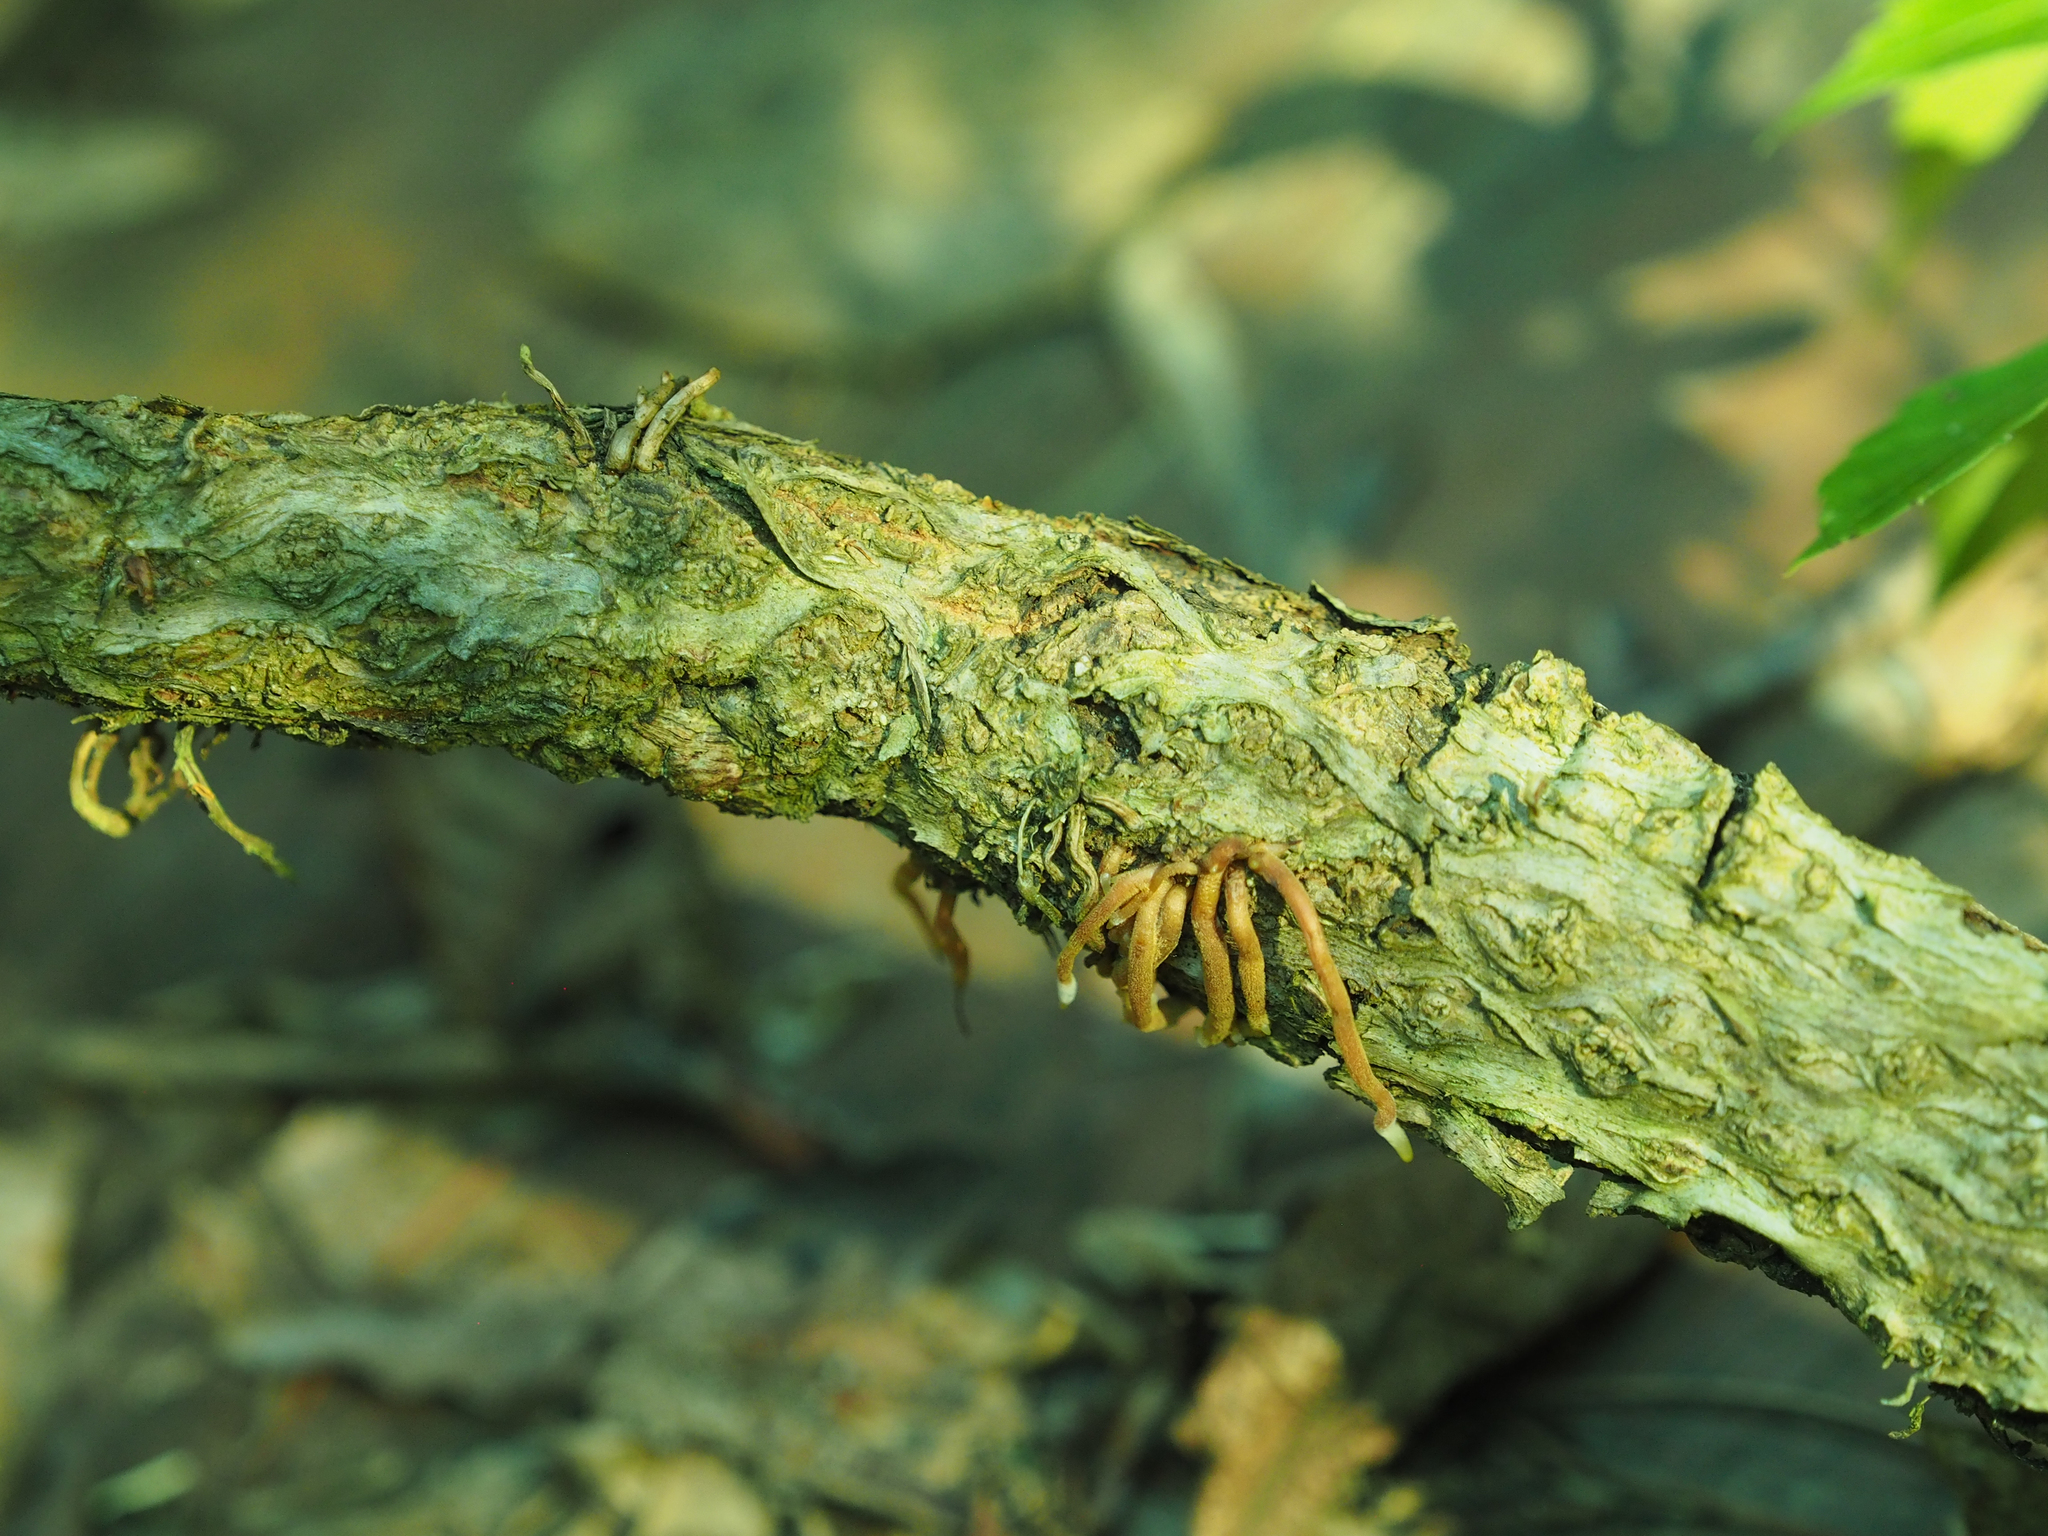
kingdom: Plantae
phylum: Tracheophyta
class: Magnoliopsida
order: Vitales
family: Vitaceae
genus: Parthenocissus
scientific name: Parthenocissus quinquefolia
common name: Virginia-creeper
